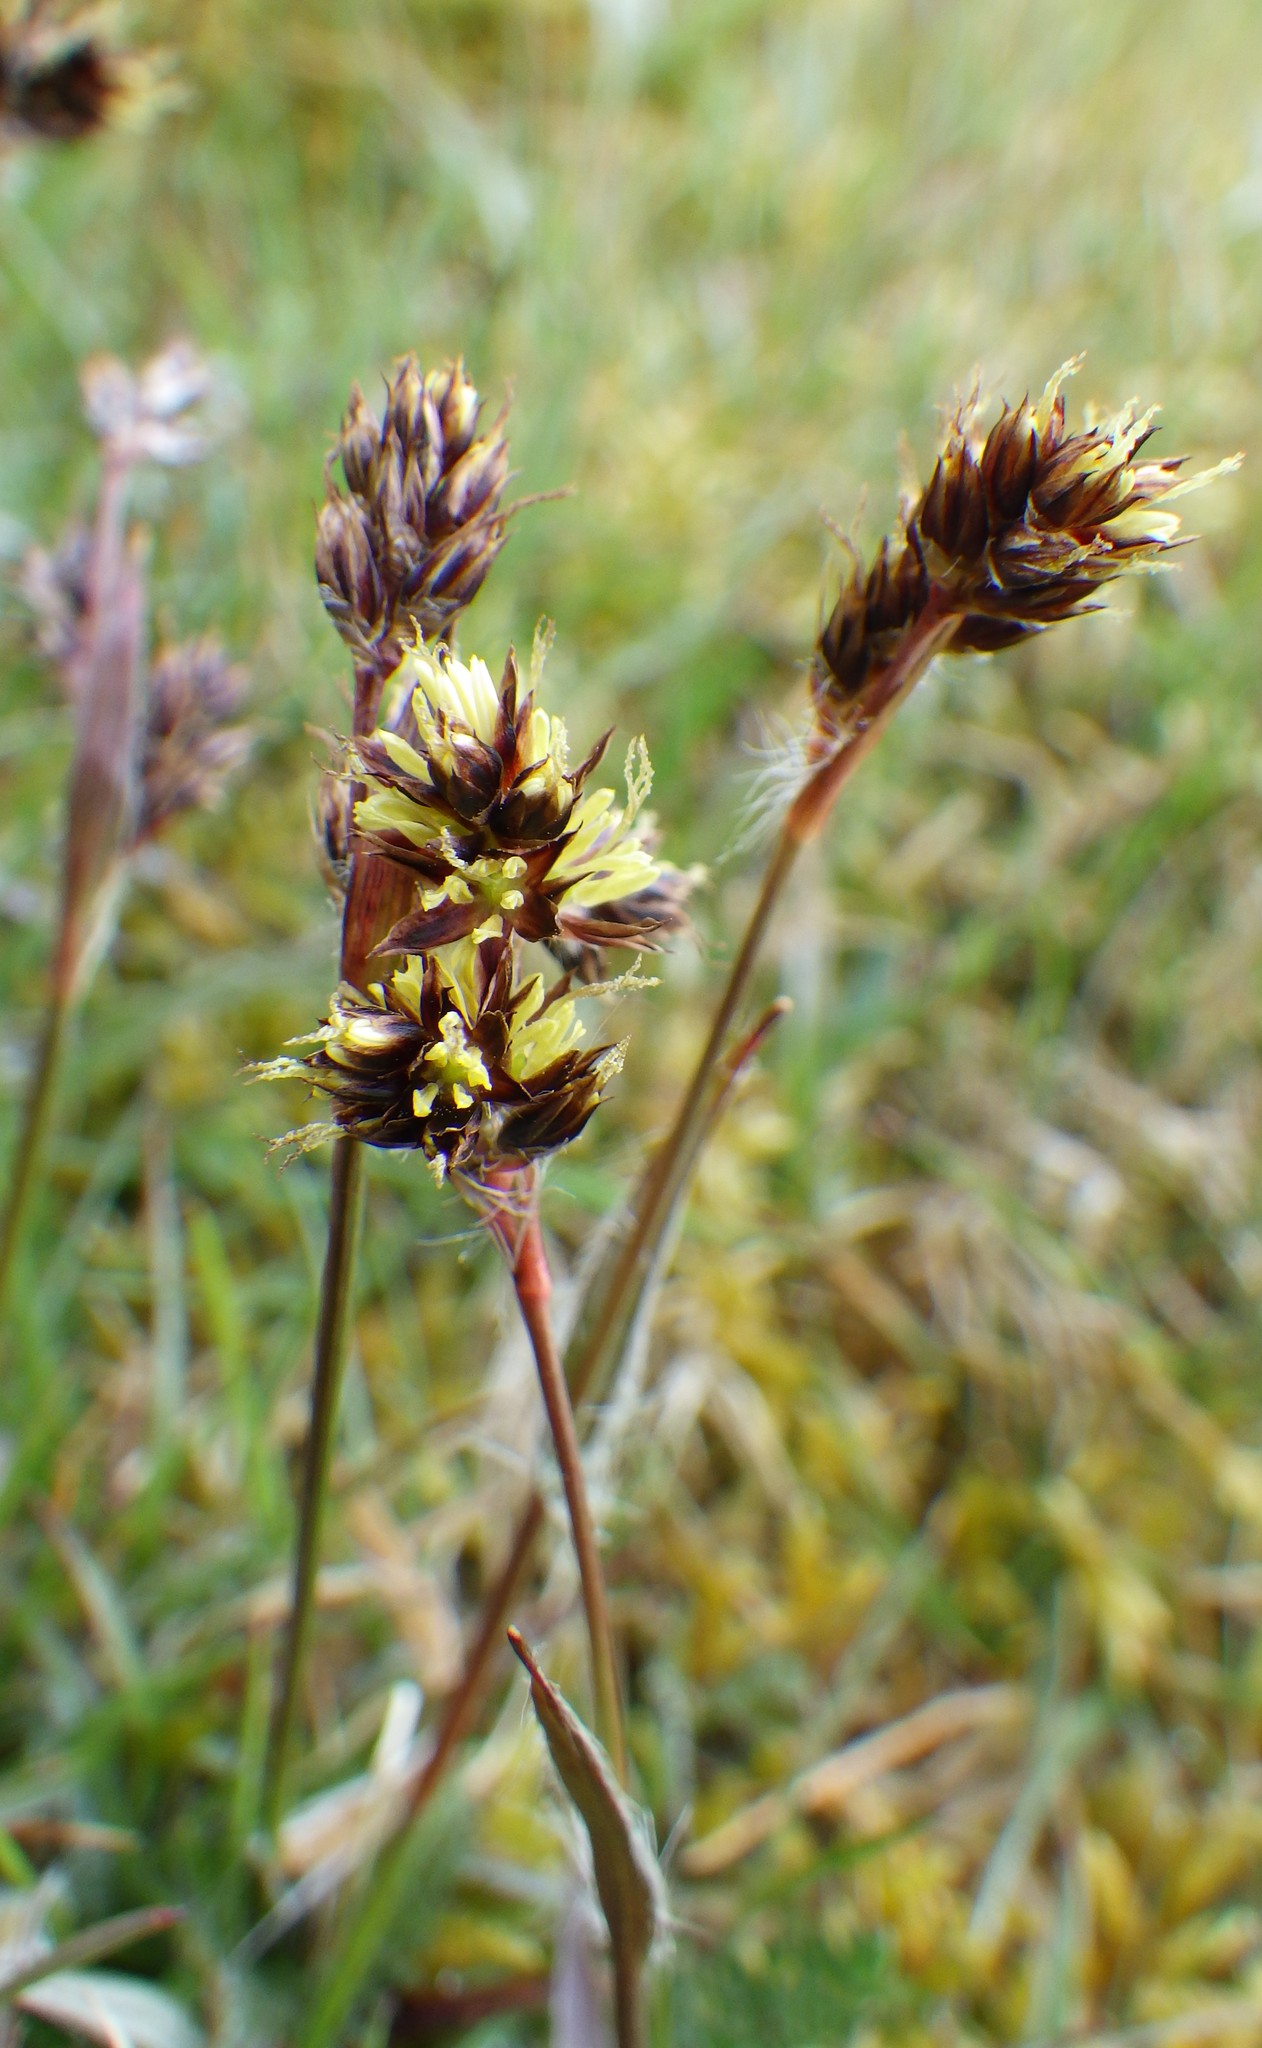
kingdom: Plantae
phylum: Tracheophyta
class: Liliopsida
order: Poales
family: Juncaceae
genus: Luzula
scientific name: Luzula campestris
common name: Field wood-rush
